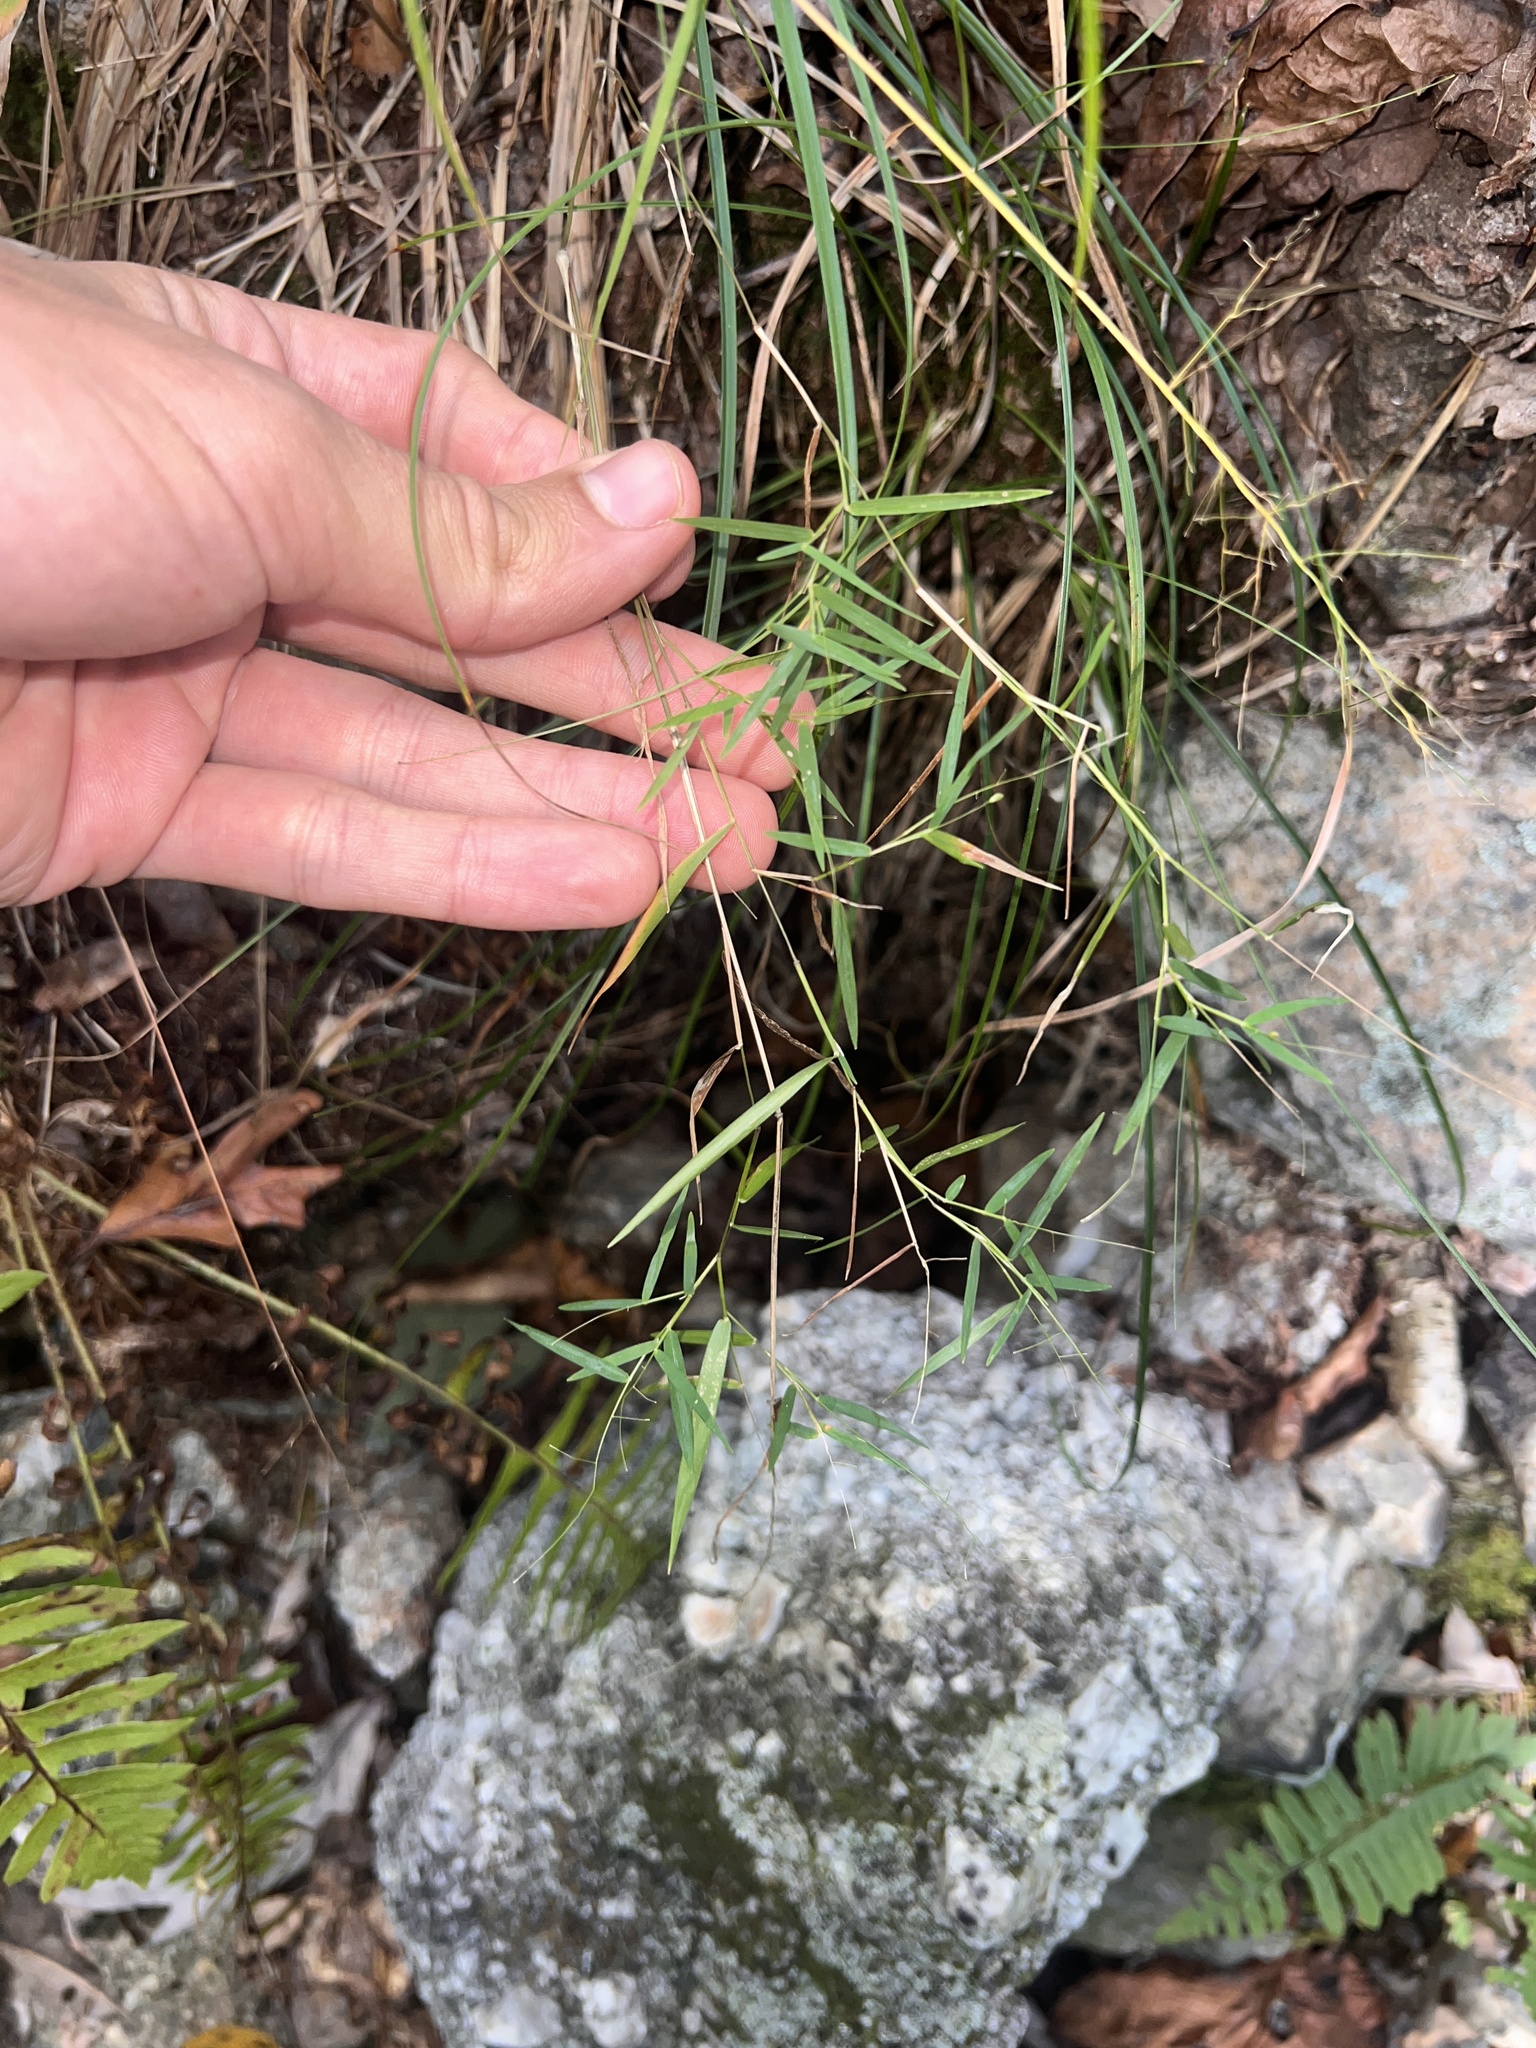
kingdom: Plantae
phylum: Tracheophyta
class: Liliopsida
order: Poales
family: Poaceae
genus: Dichanthelium
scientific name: Dichanthelium microcarpon
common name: Small-fruited witchgrass
